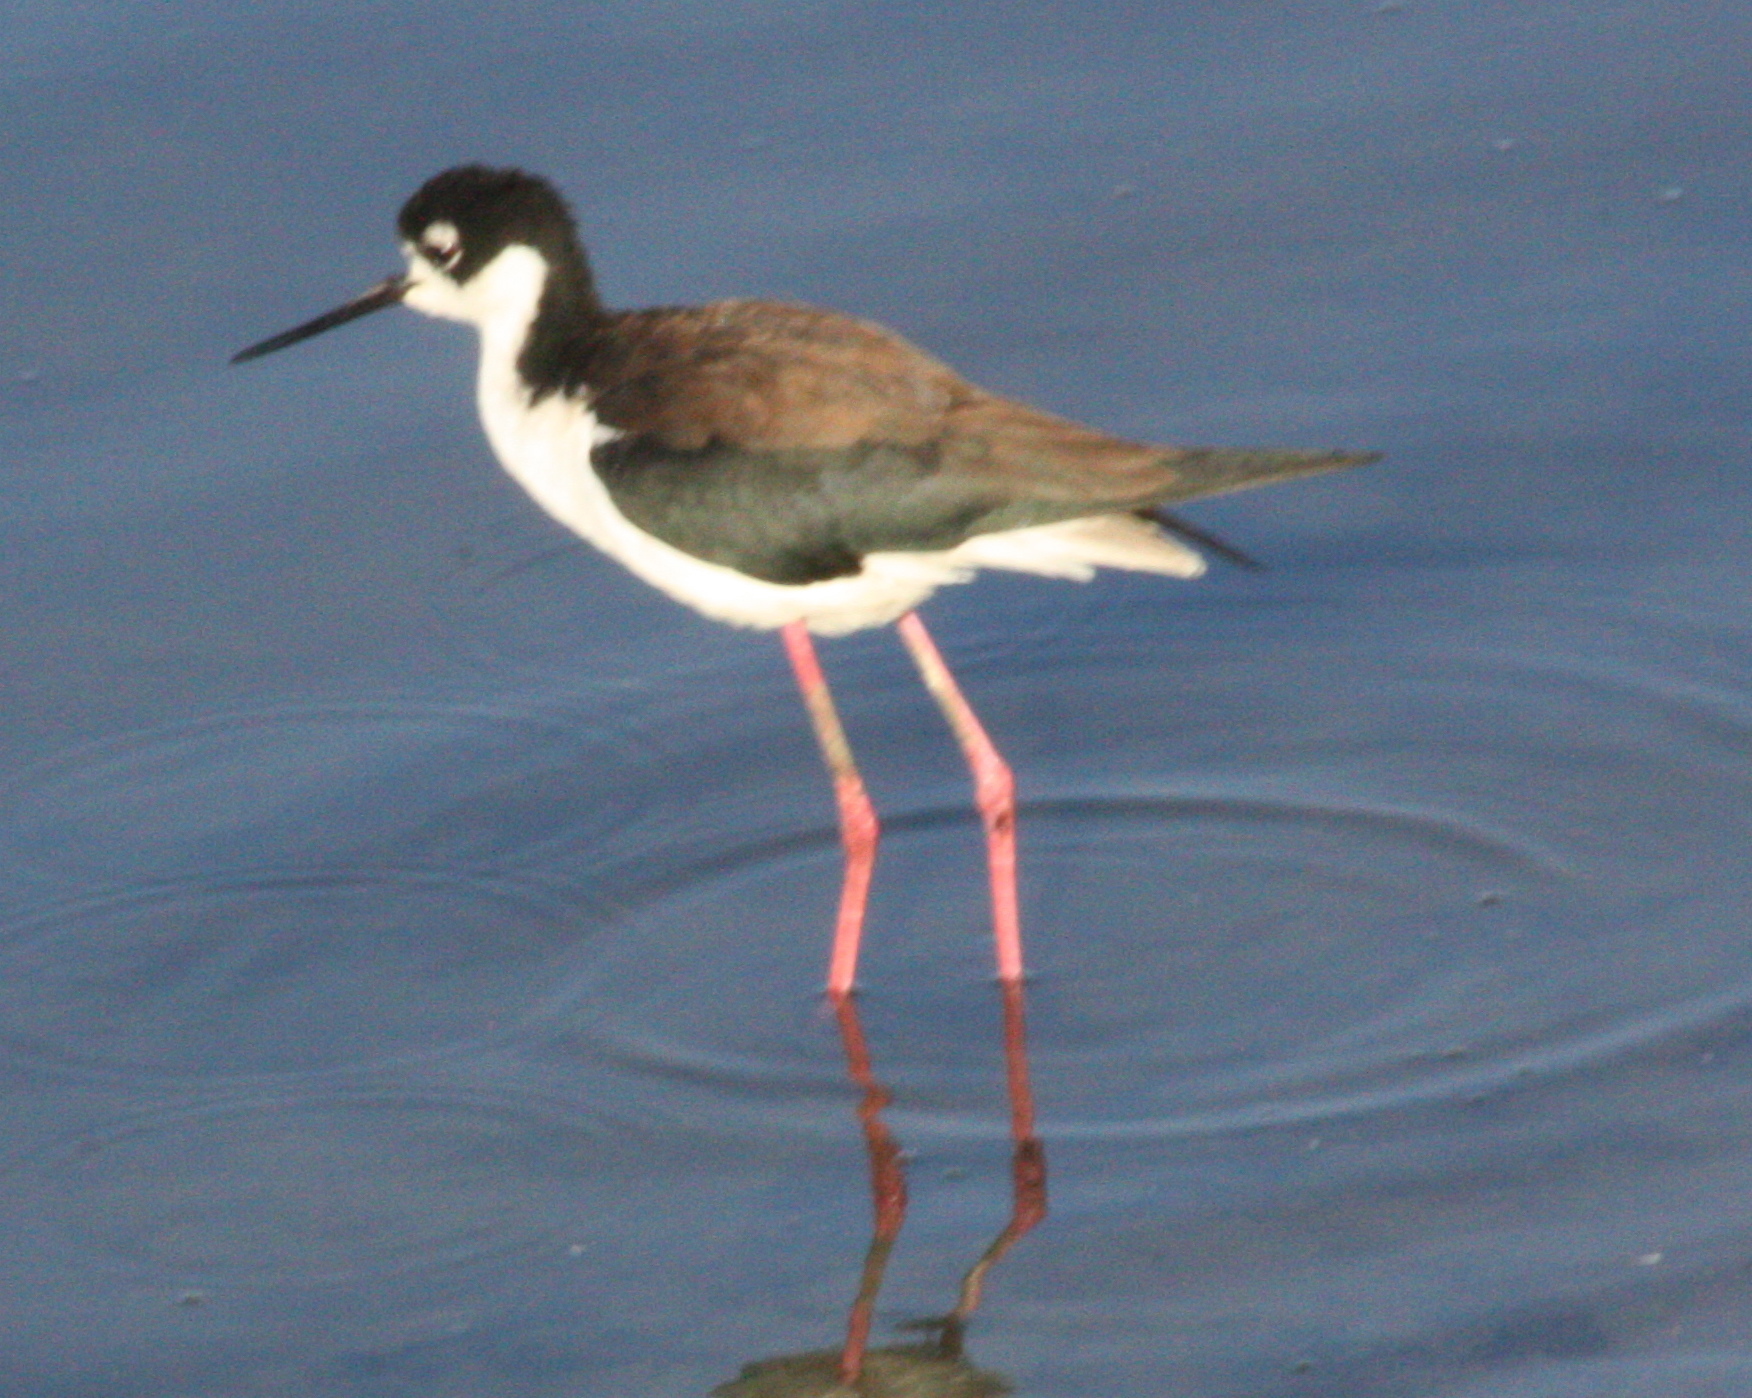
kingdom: Animalia
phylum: Chordata
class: Aves
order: Charadriiformes
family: Recurvirostridae
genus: Himantopus
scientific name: Himantopus mexicanus
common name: Black-necked stilt
